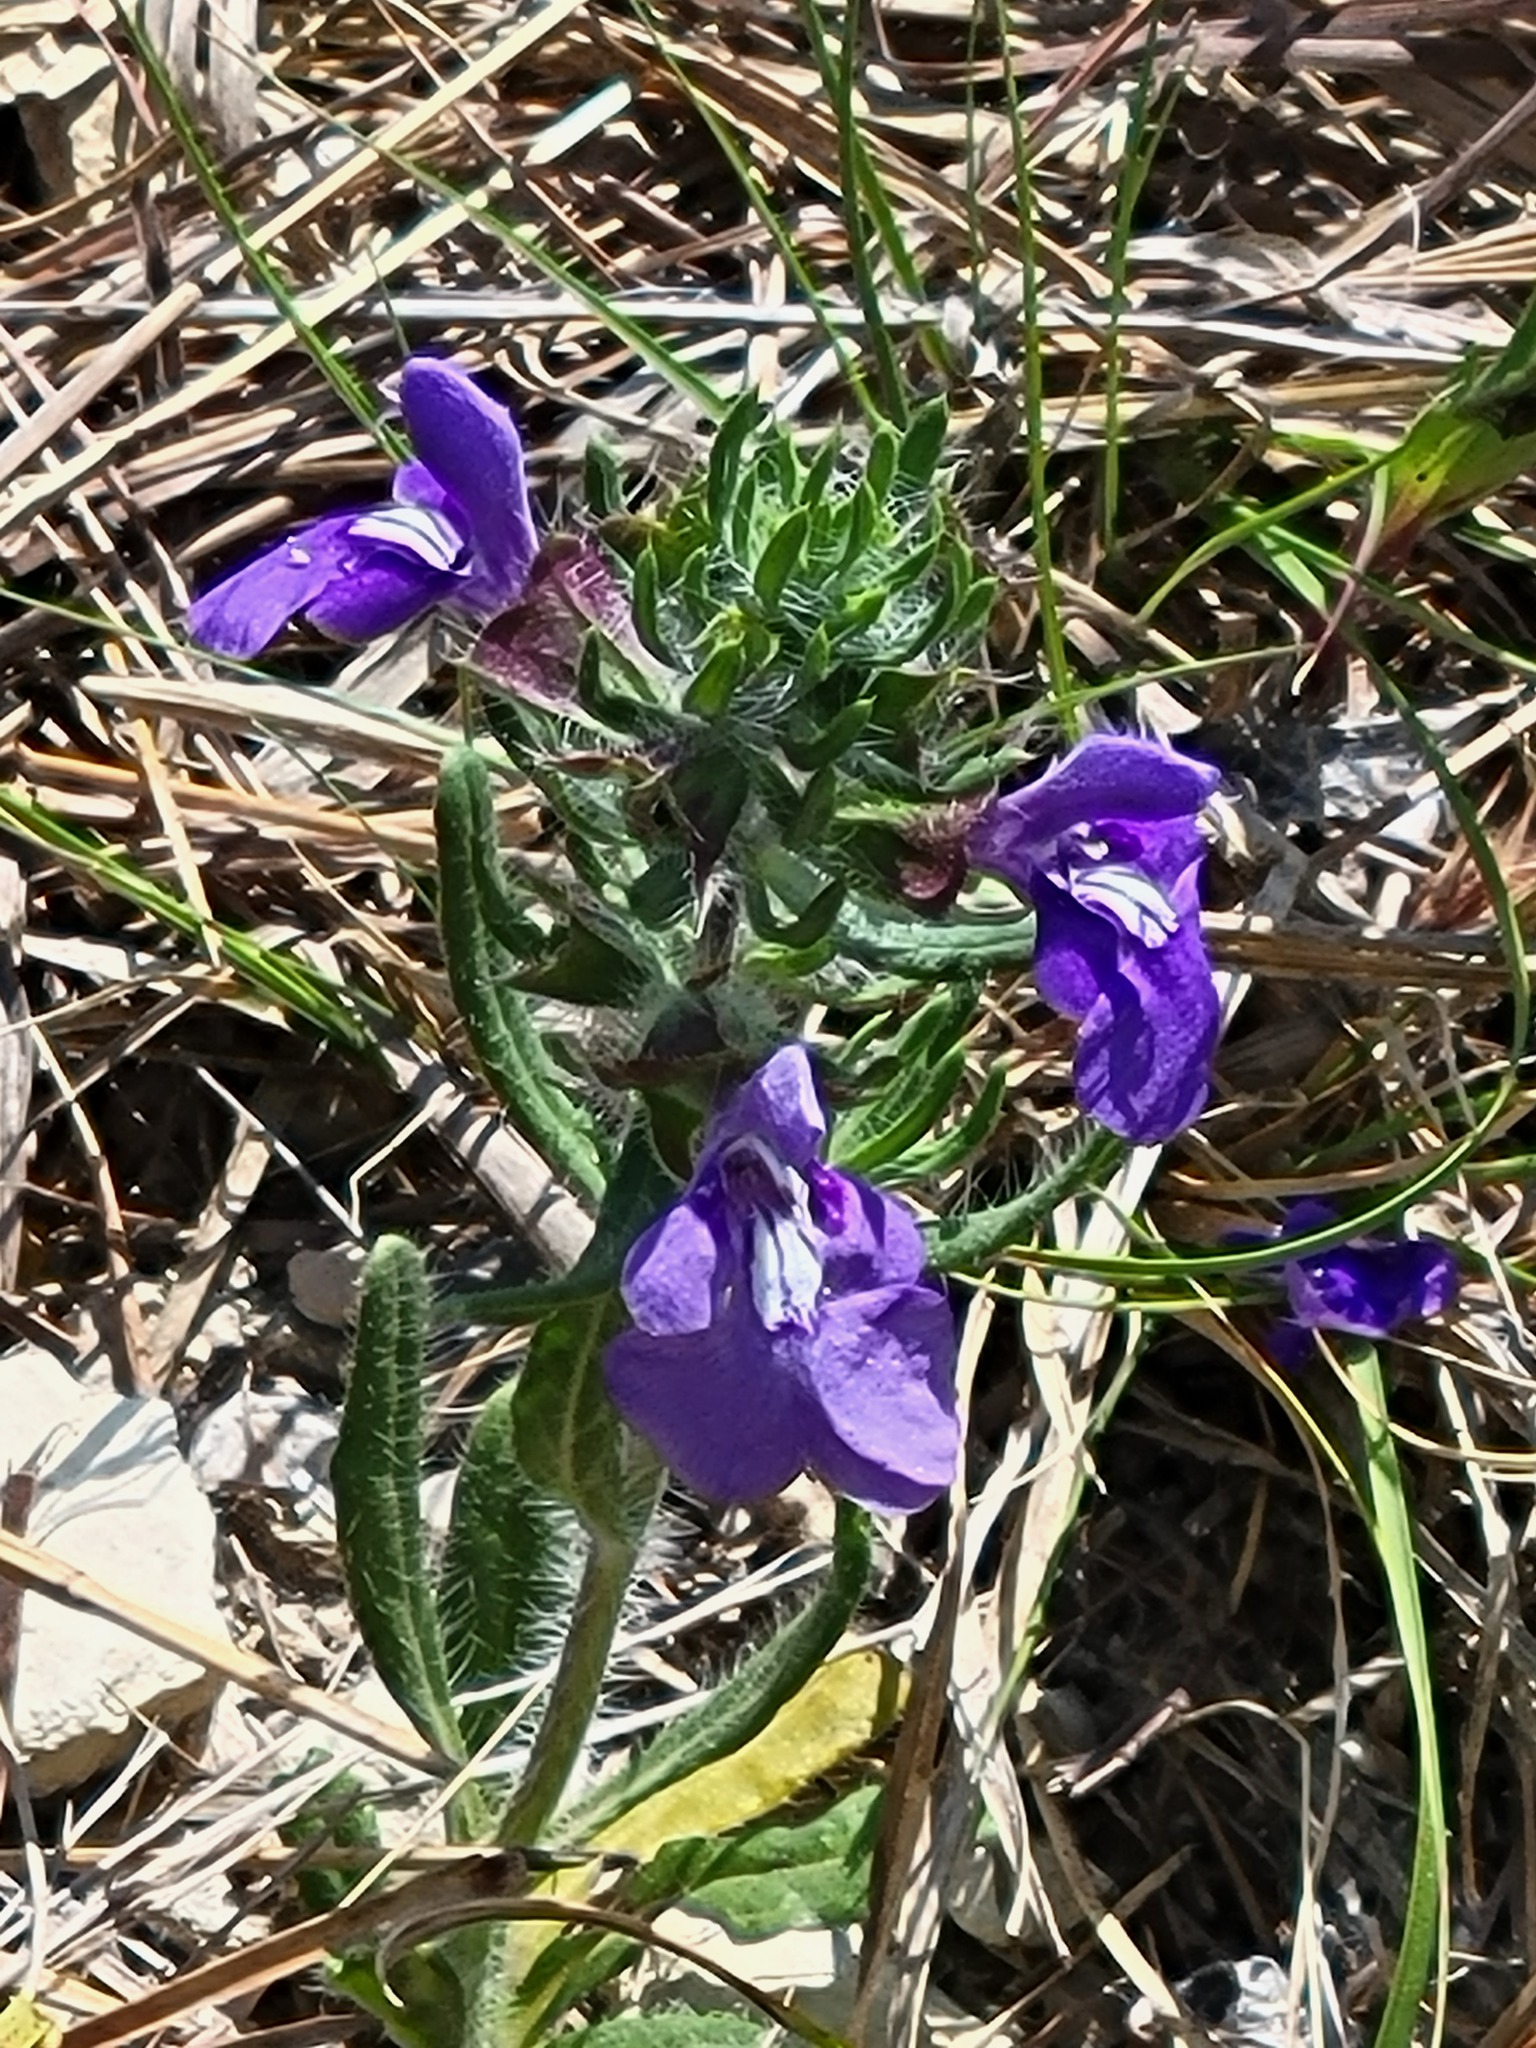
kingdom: Plantae
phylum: Tracheophyta
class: Magnoliopsida
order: Lamiales
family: Lamiaceae
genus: Salvia
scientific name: Salvia texana
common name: Texas sage
